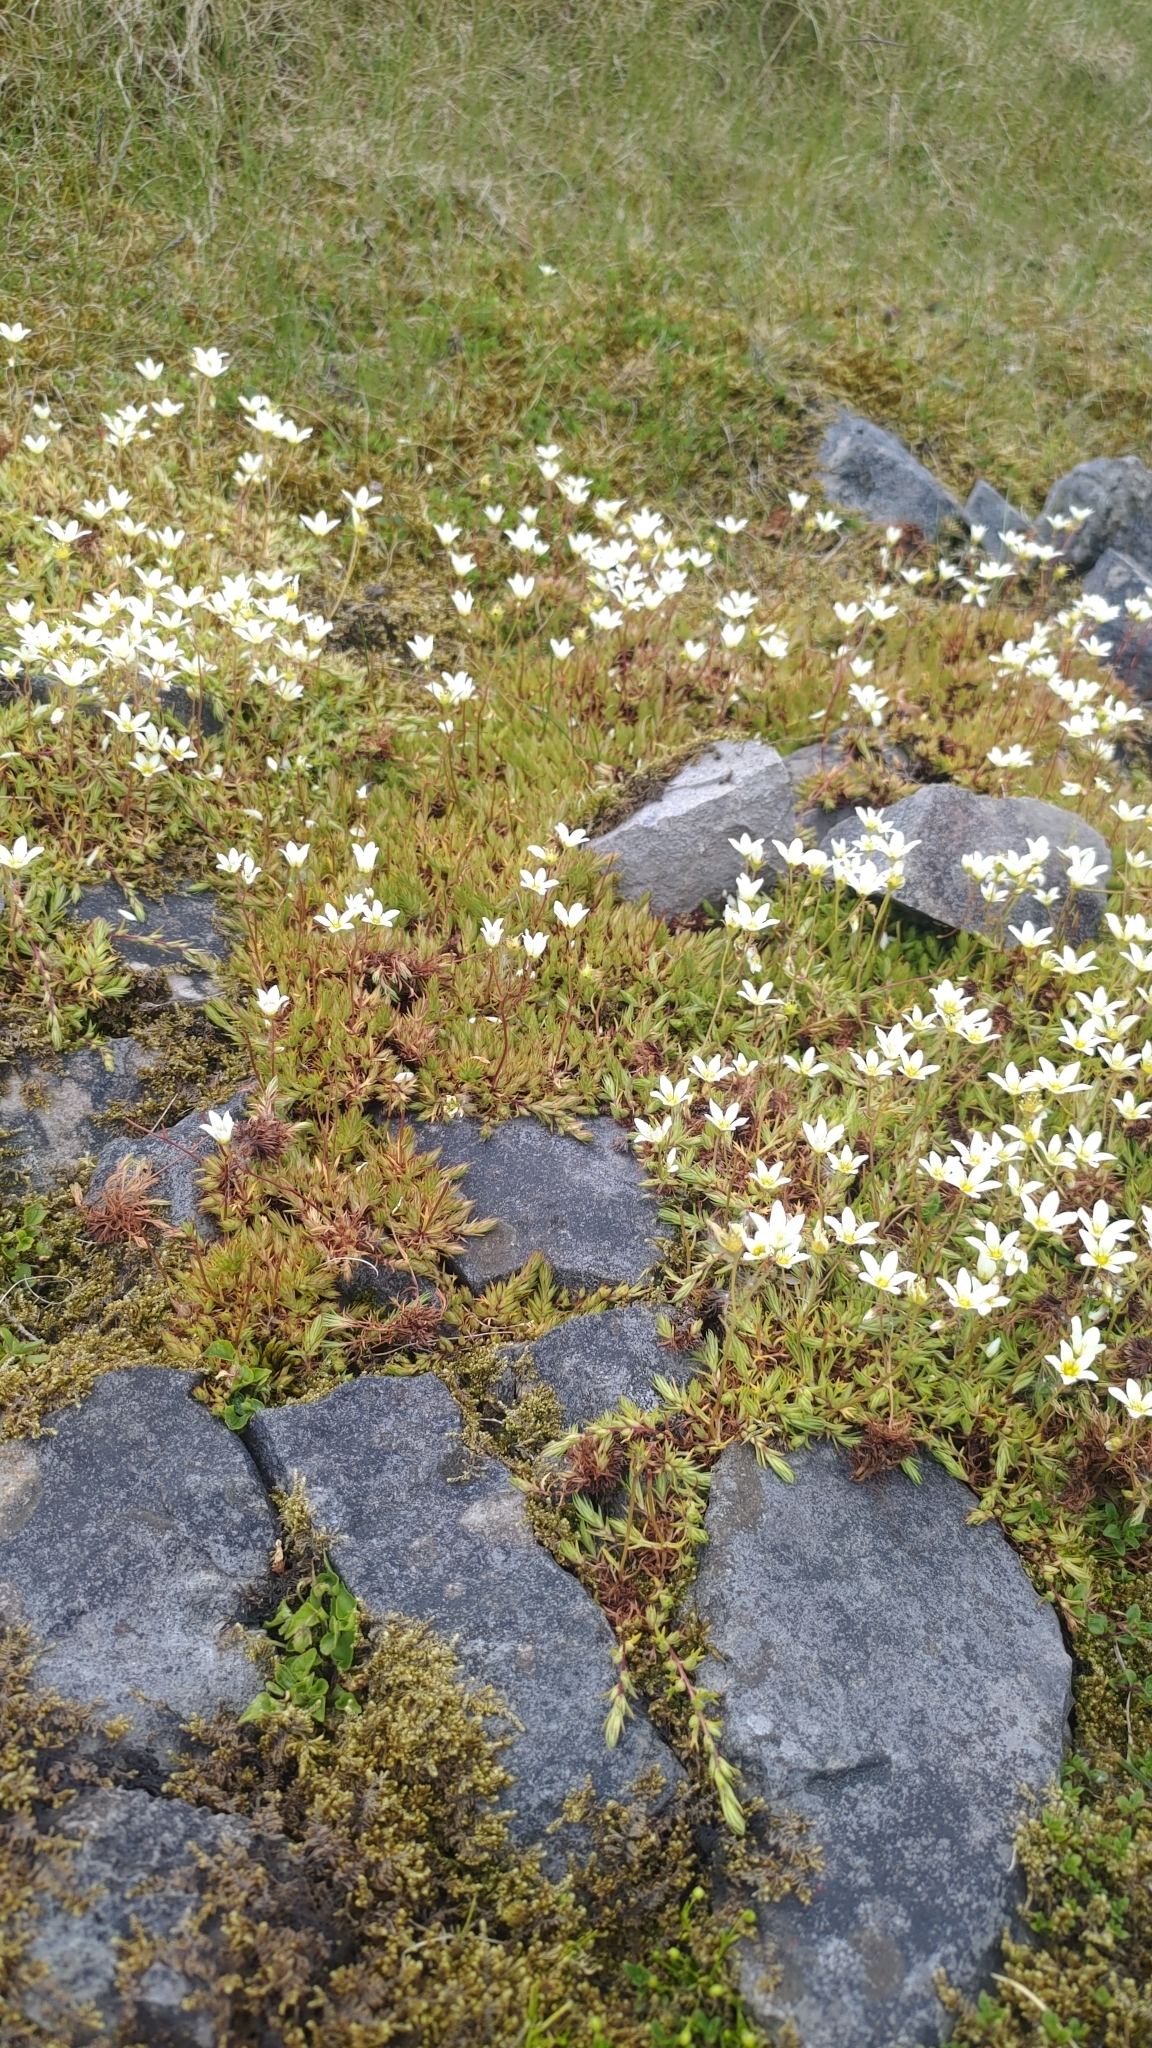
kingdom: Plantae
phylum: Tracheophyta
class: Magnoliopsida
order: Saxifragales
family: Saxifragaceae
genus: Saxifraga
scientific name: Saxifraga hypnoides
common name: Mossy saxifrage
